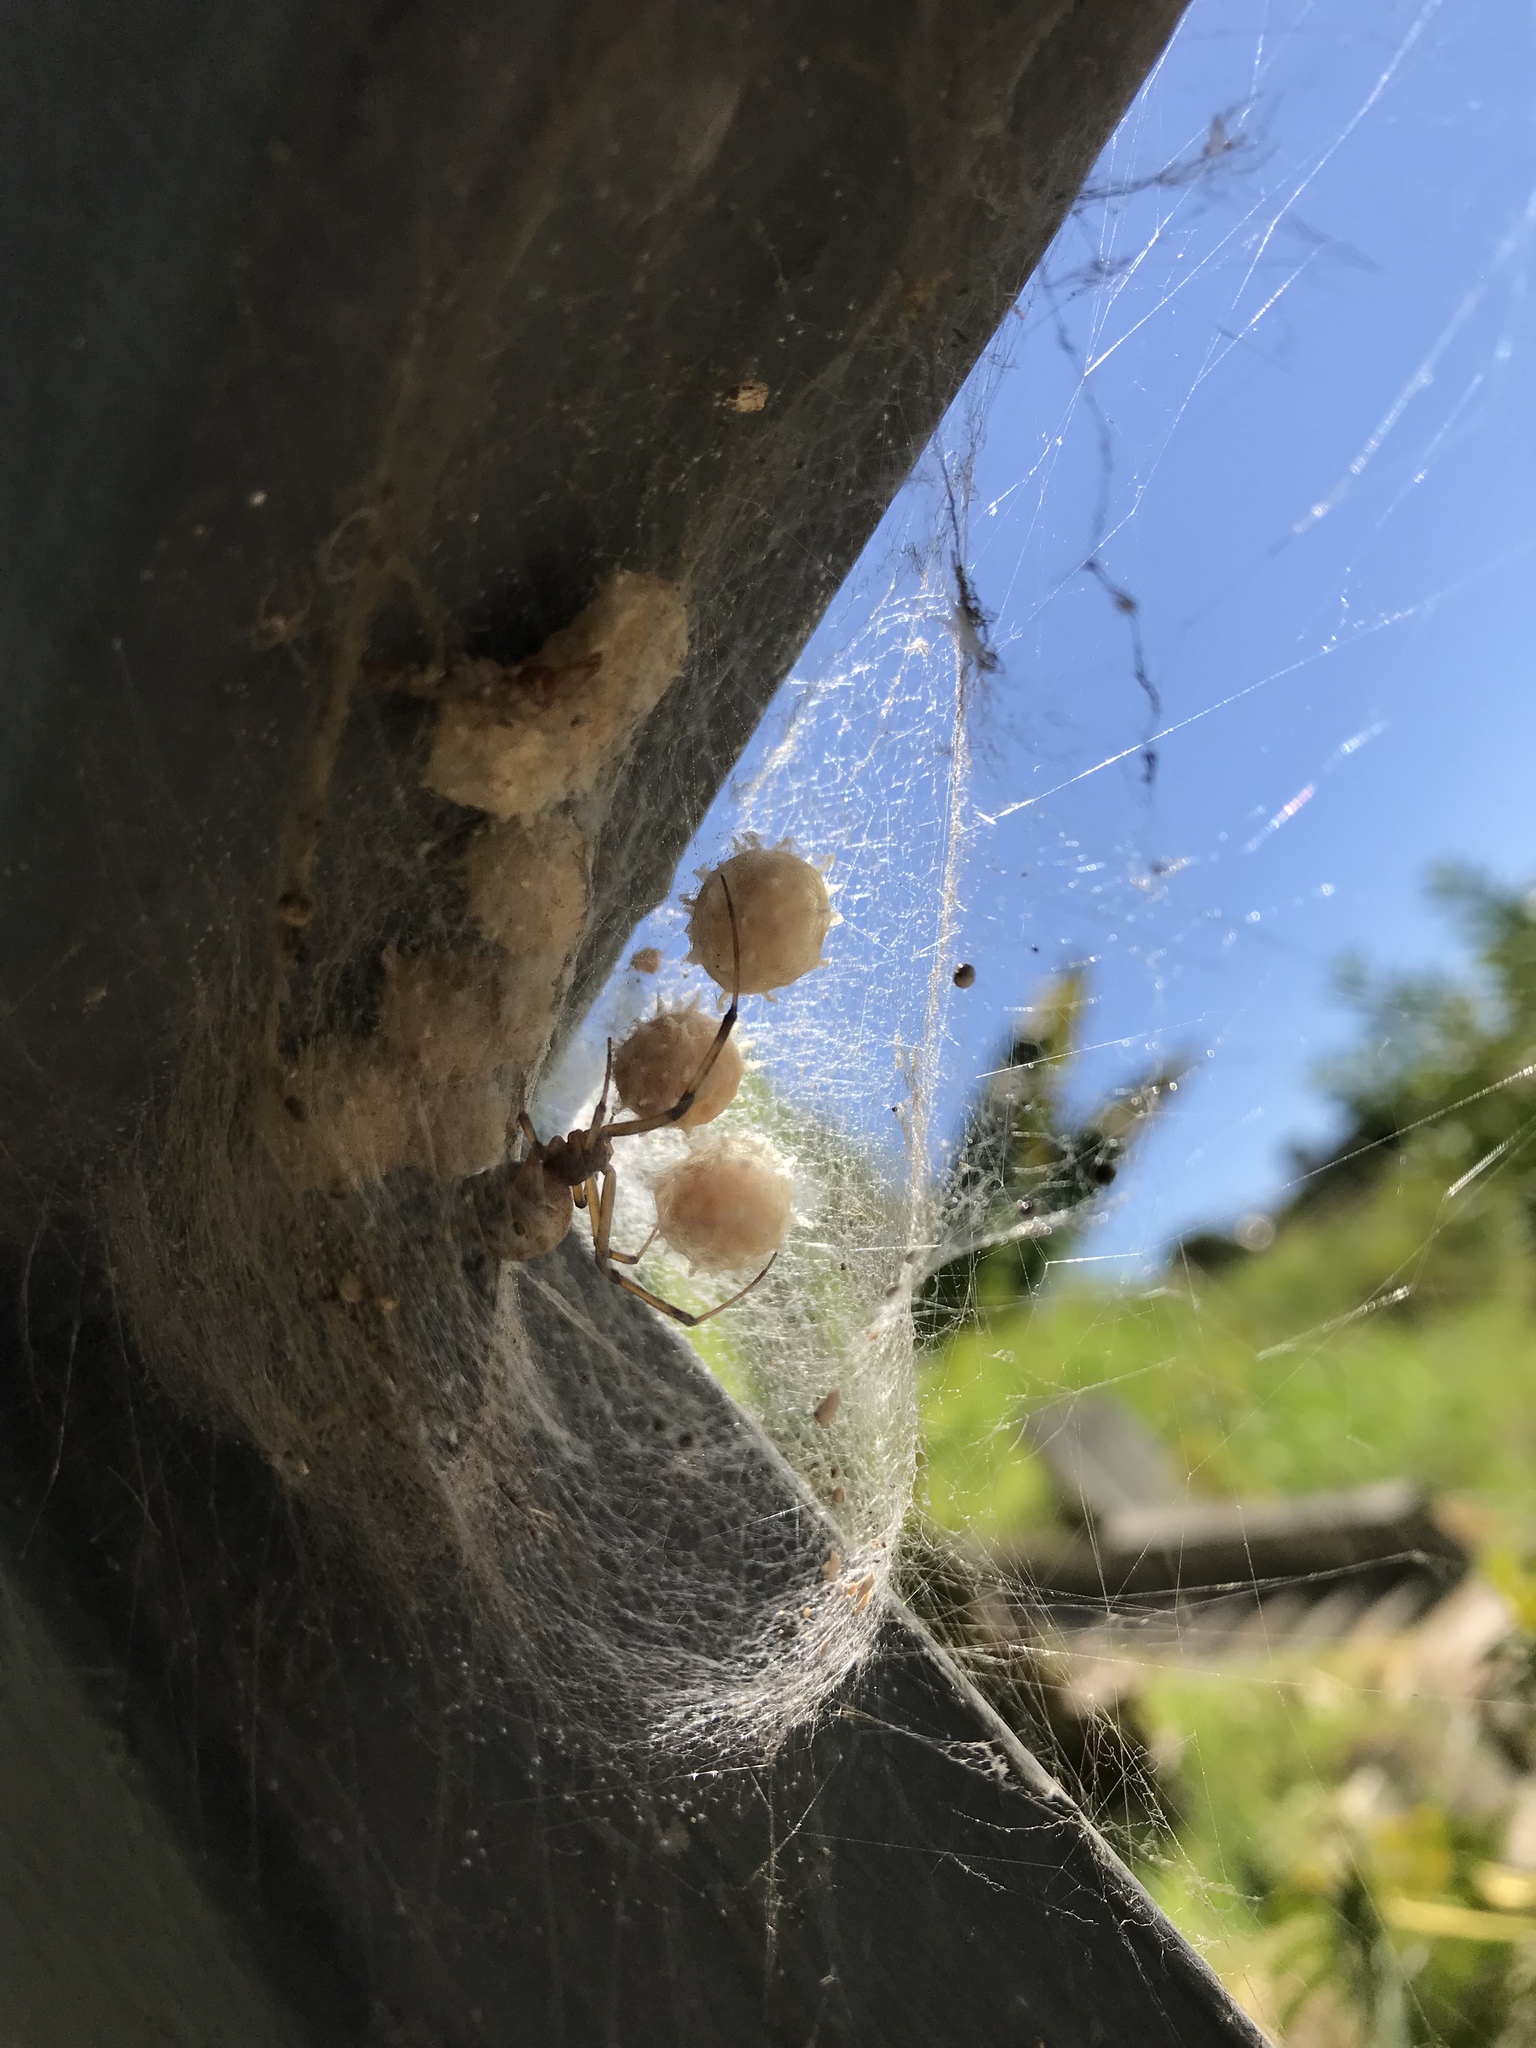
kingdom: Animalia
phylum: Arthropoda
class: Arachnida
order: Araneae
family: Theridiidae
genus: Latrodectus
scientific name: Latrodectus geometricus
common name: Brown widow spider
